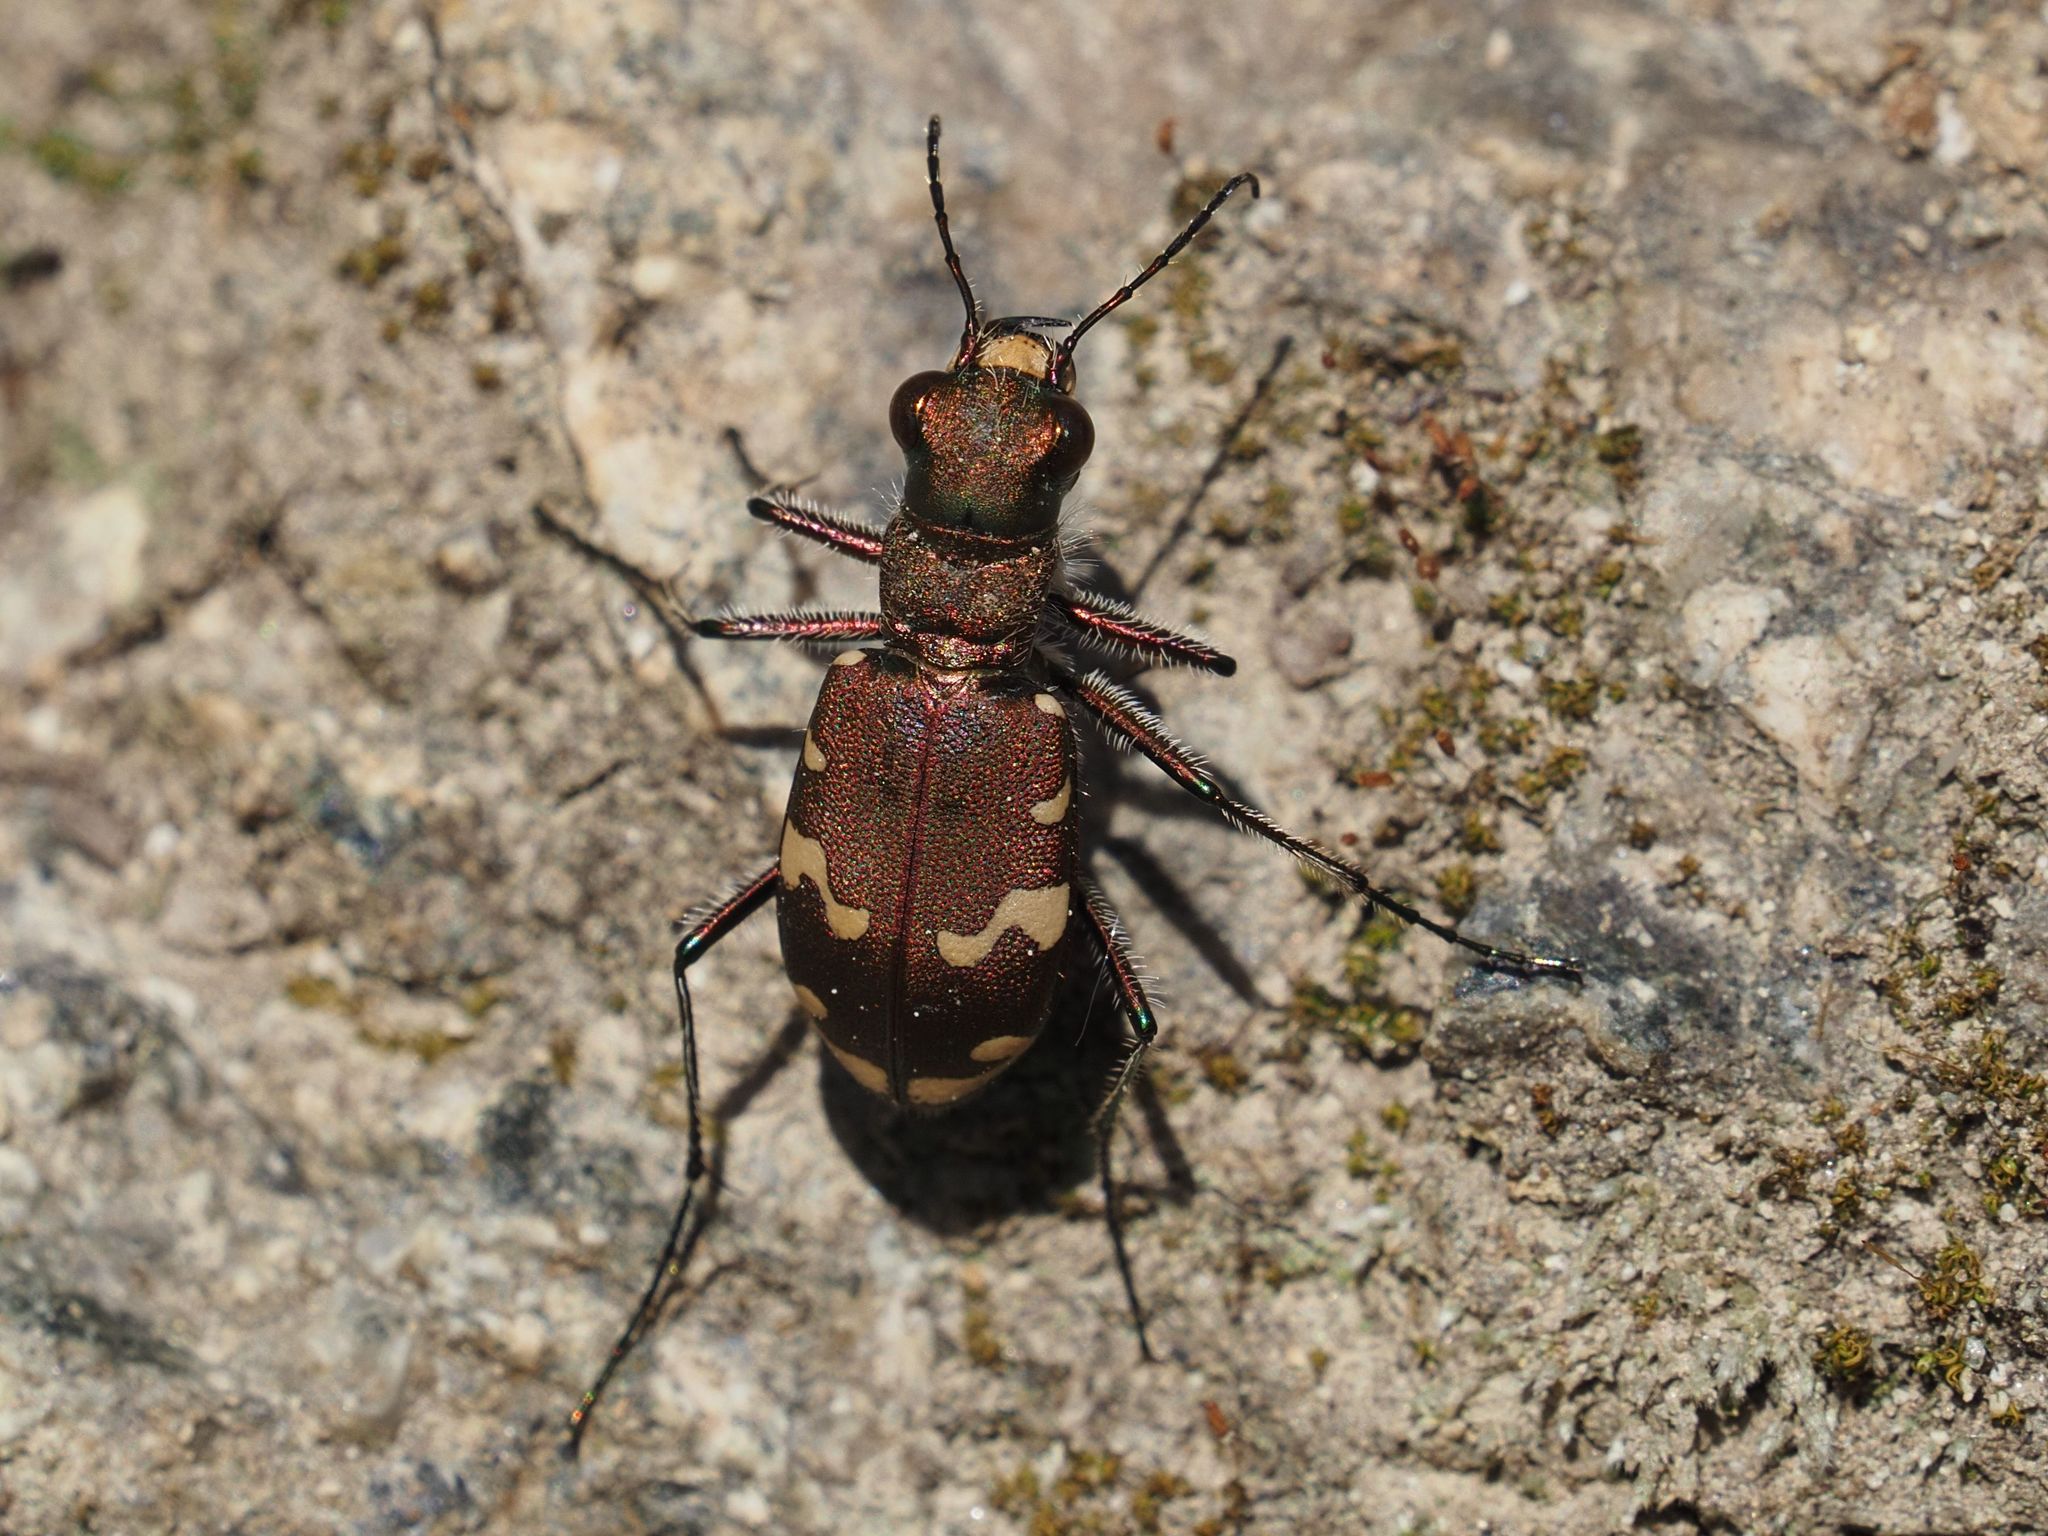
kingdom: Animalia
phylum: Arthropoda
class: Insecta
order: Coleoptera
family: Carabidae
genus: Cicindela
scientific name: Cicindela sylvicola
